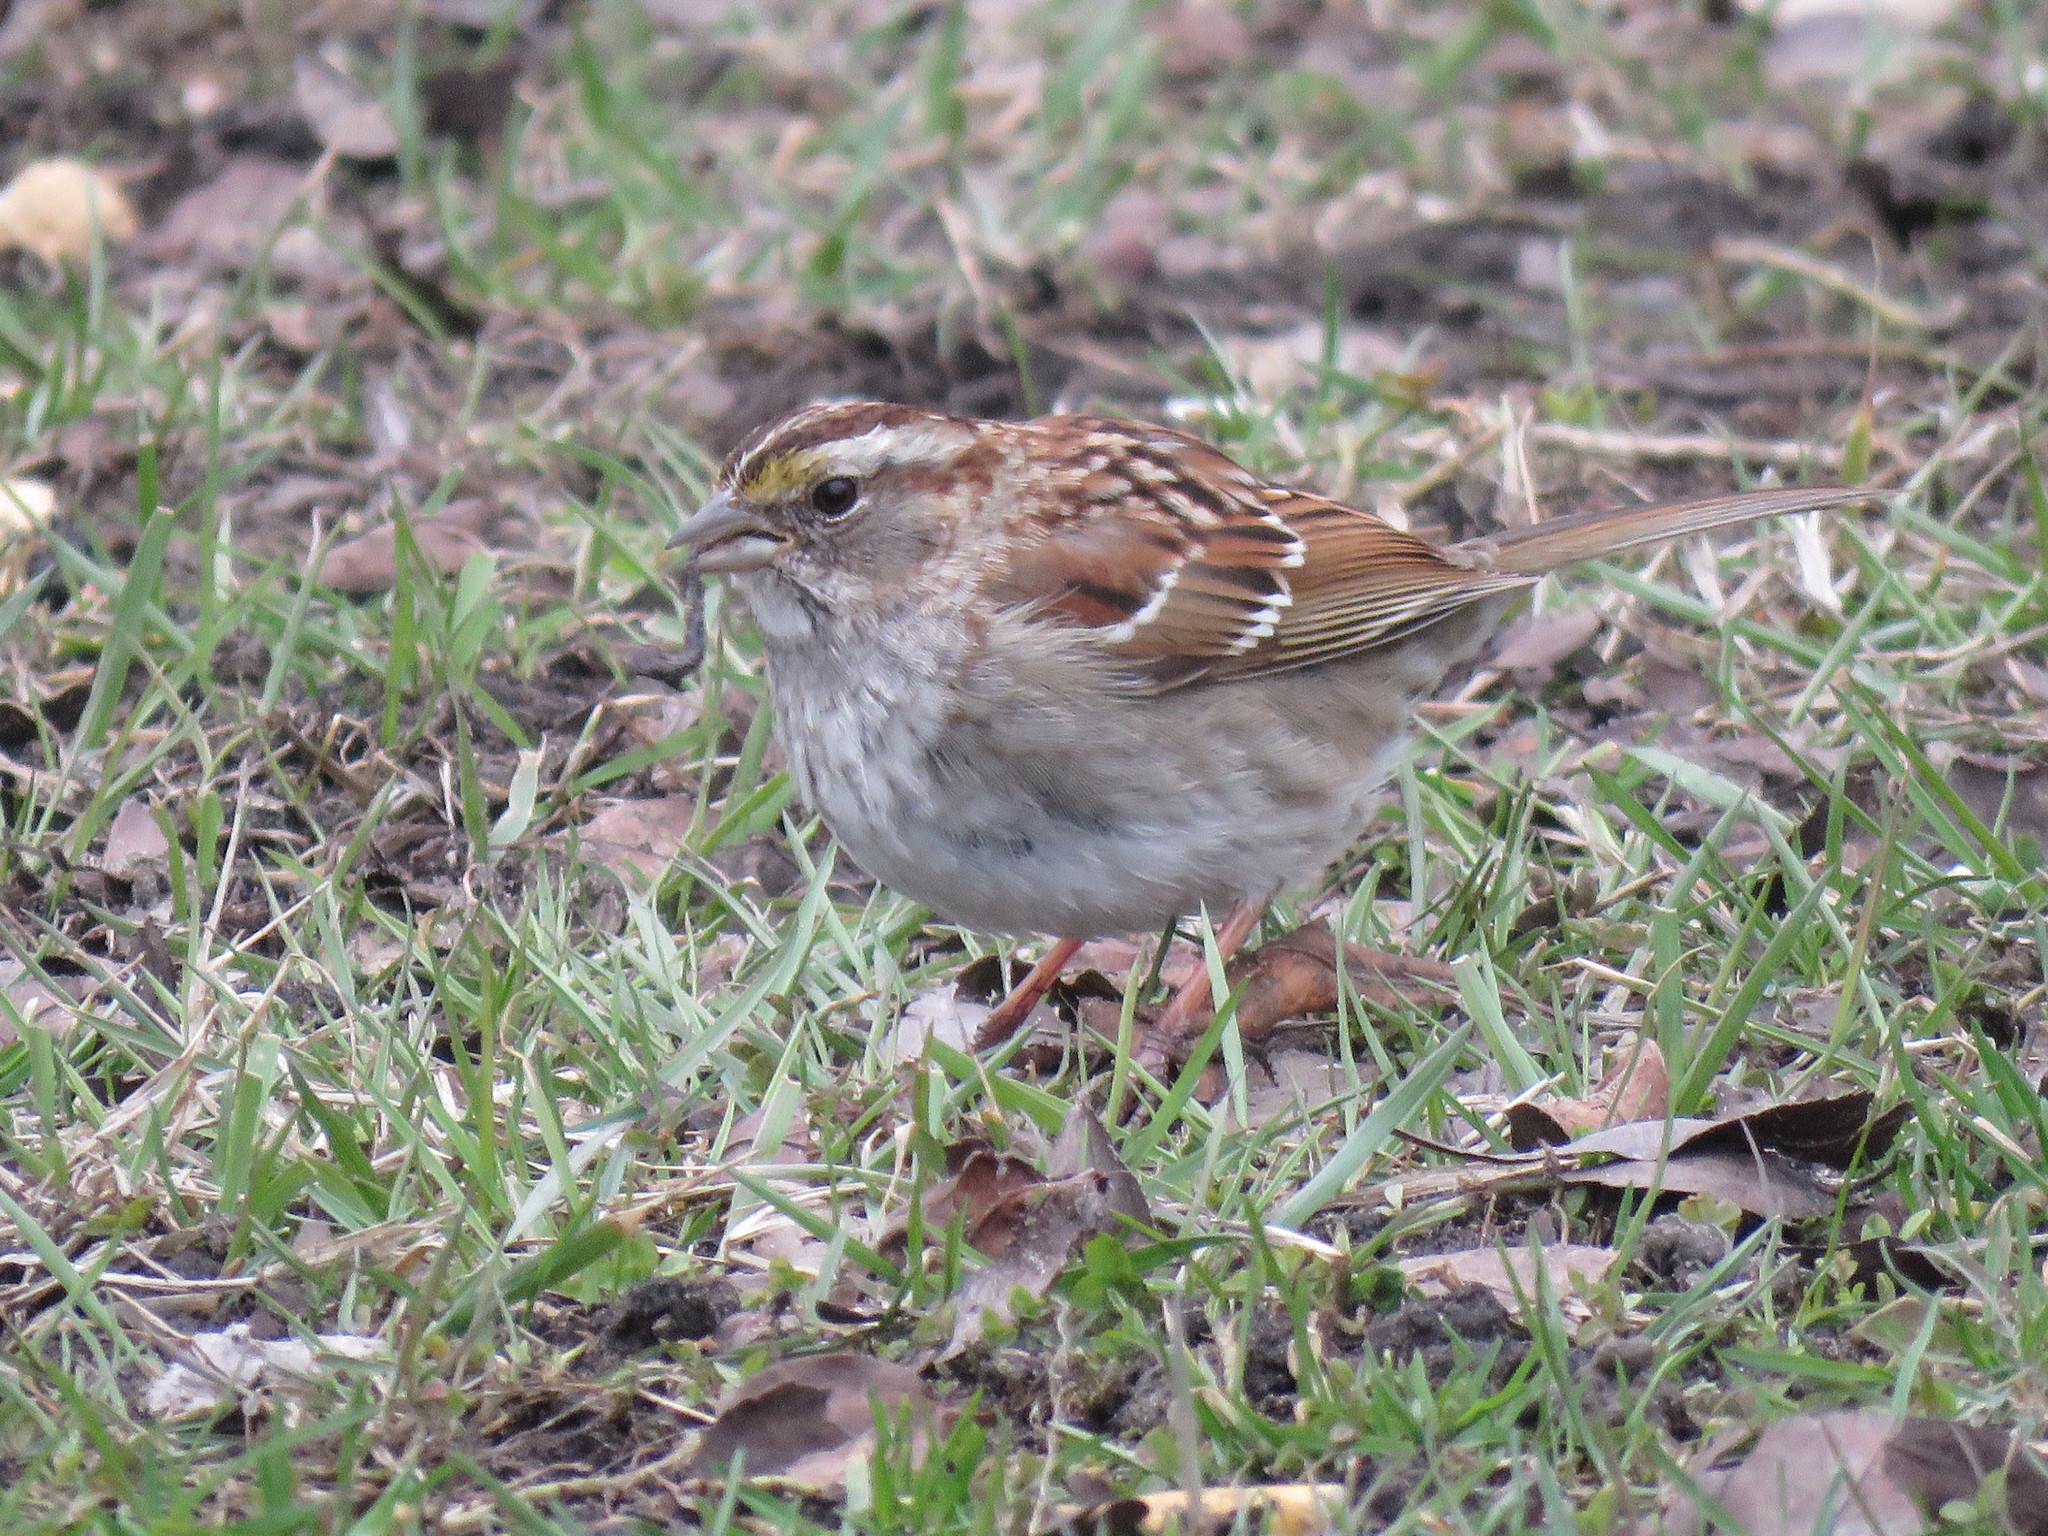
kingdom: Animalia
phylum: Chordata
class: Aves
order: Passeriformes
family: Passerellidae
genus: Zonotrichia
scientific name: Zonotrichia albicollis
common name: White-throated sparrow
